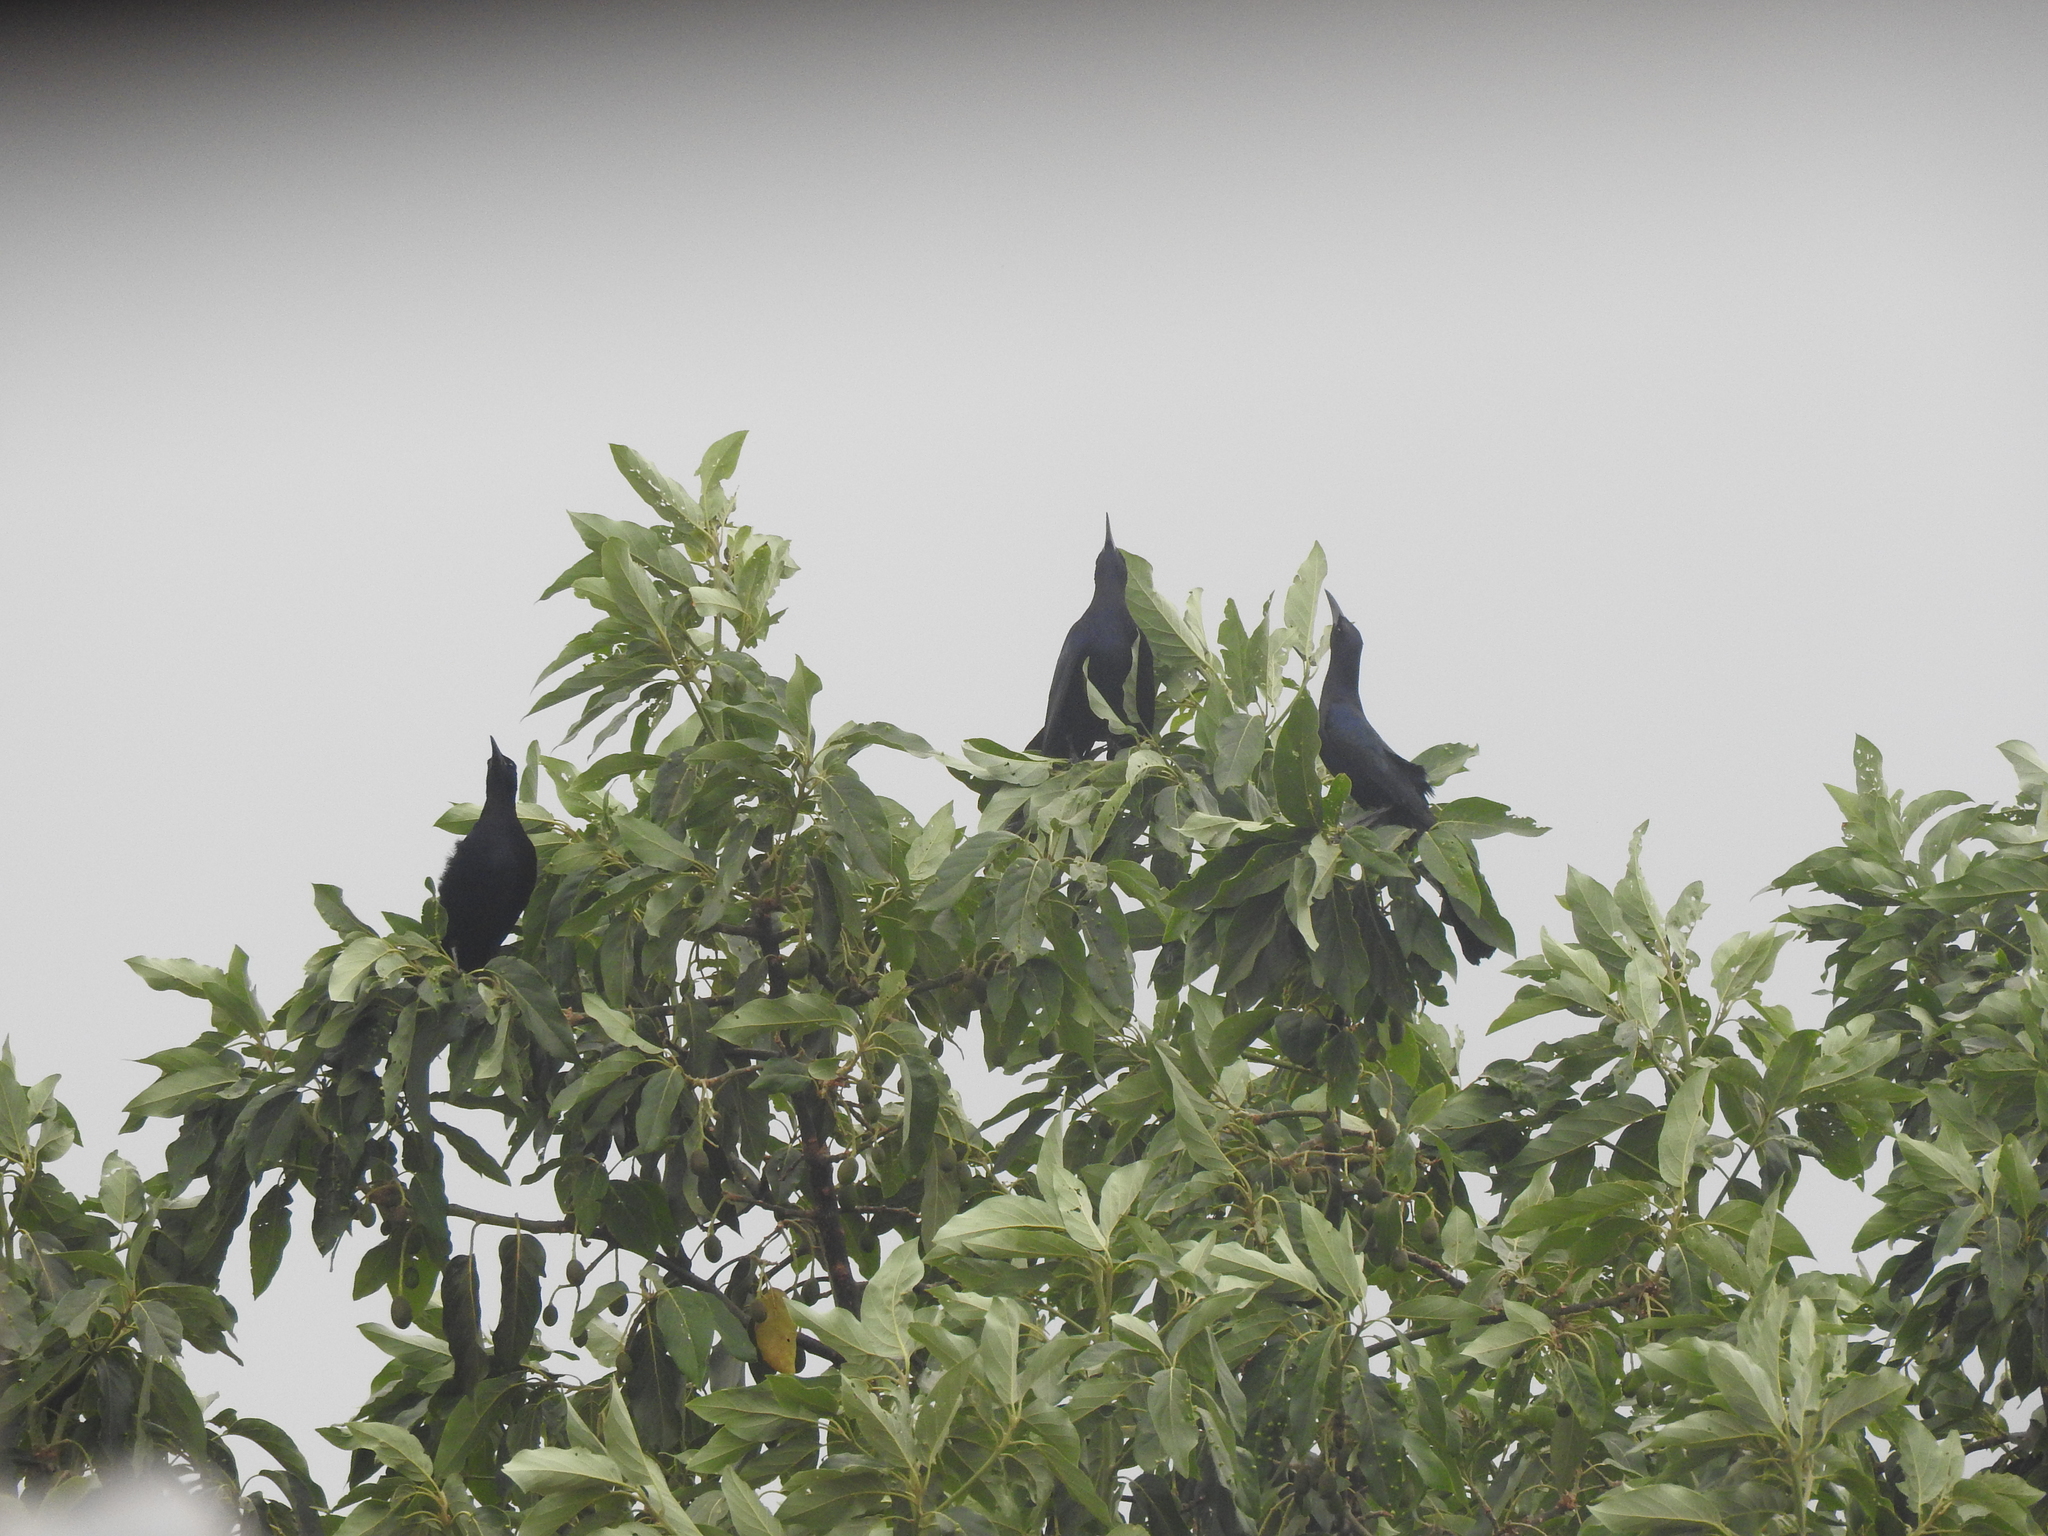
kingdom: Animalia
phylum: Chordata
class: Aves
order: Passeriformes
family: Icteridae
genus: Quiscalus
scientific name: Quiscalus mexicanus
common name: Great-tailed grackle
